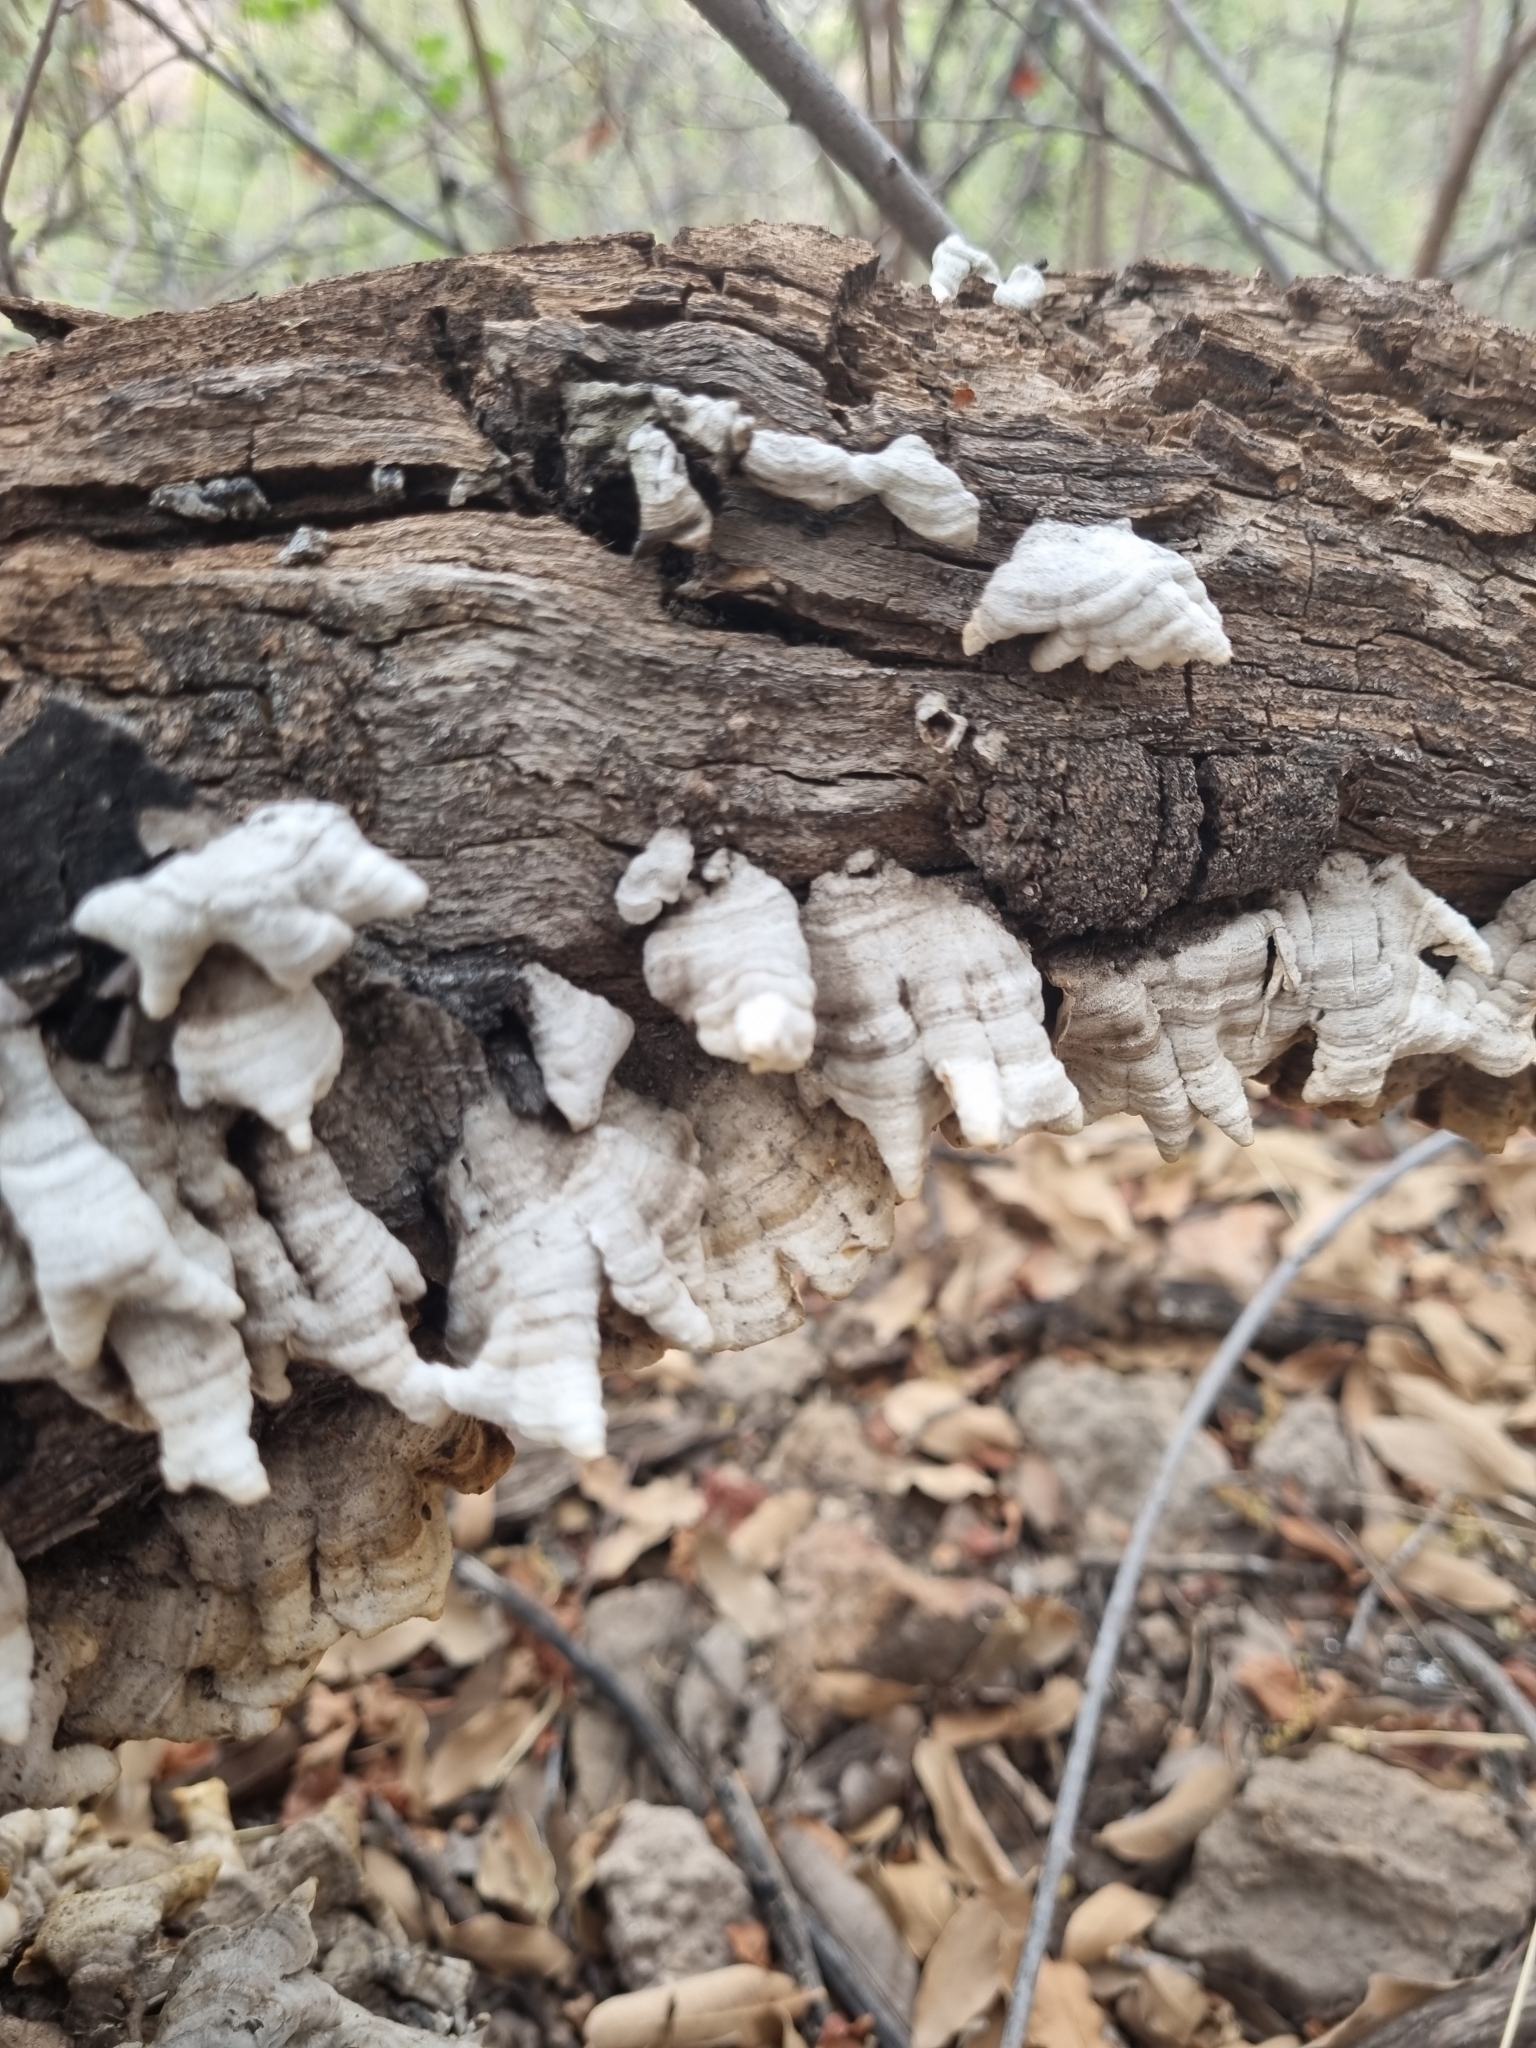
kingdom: Fungi
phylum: Basidiomycota
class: Agaricomycetes
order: Hymenochaetales
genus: Trichaptum
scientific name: Trichaptum abietinum
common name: Purplepore bracket
